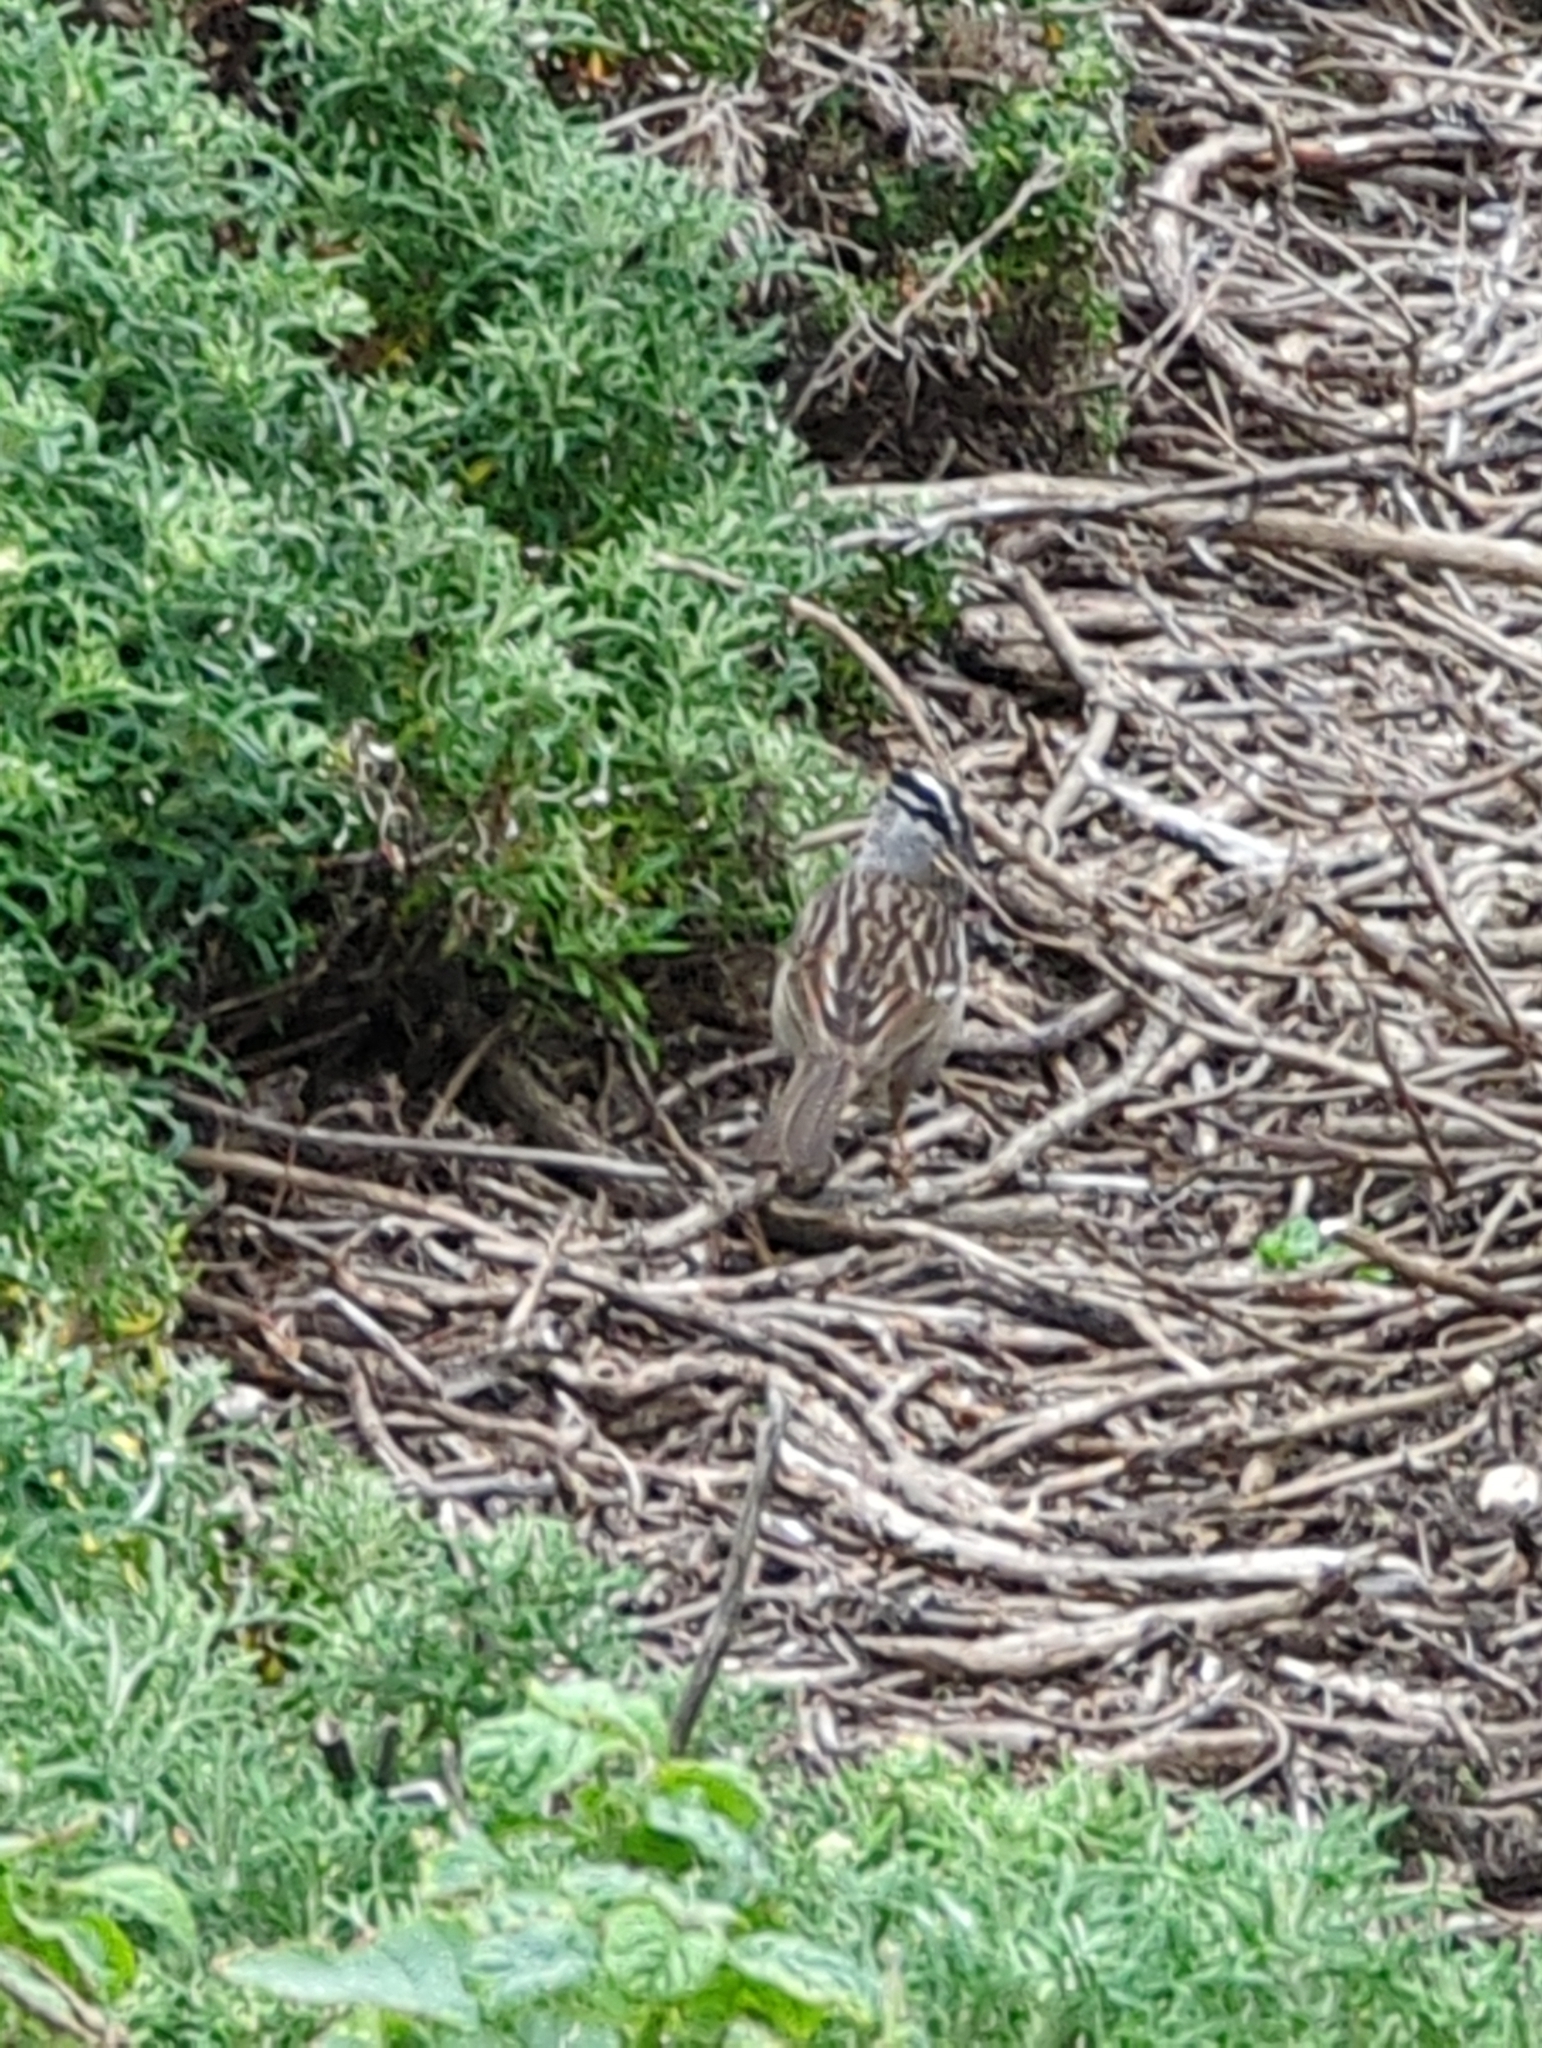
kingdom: Animalia
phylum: Chordata
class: Aves
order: Passeriformes
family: Passerellidae
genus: Zonotrichia
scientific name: Zonotrichia leucophrys
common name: White-crowned sparrow
